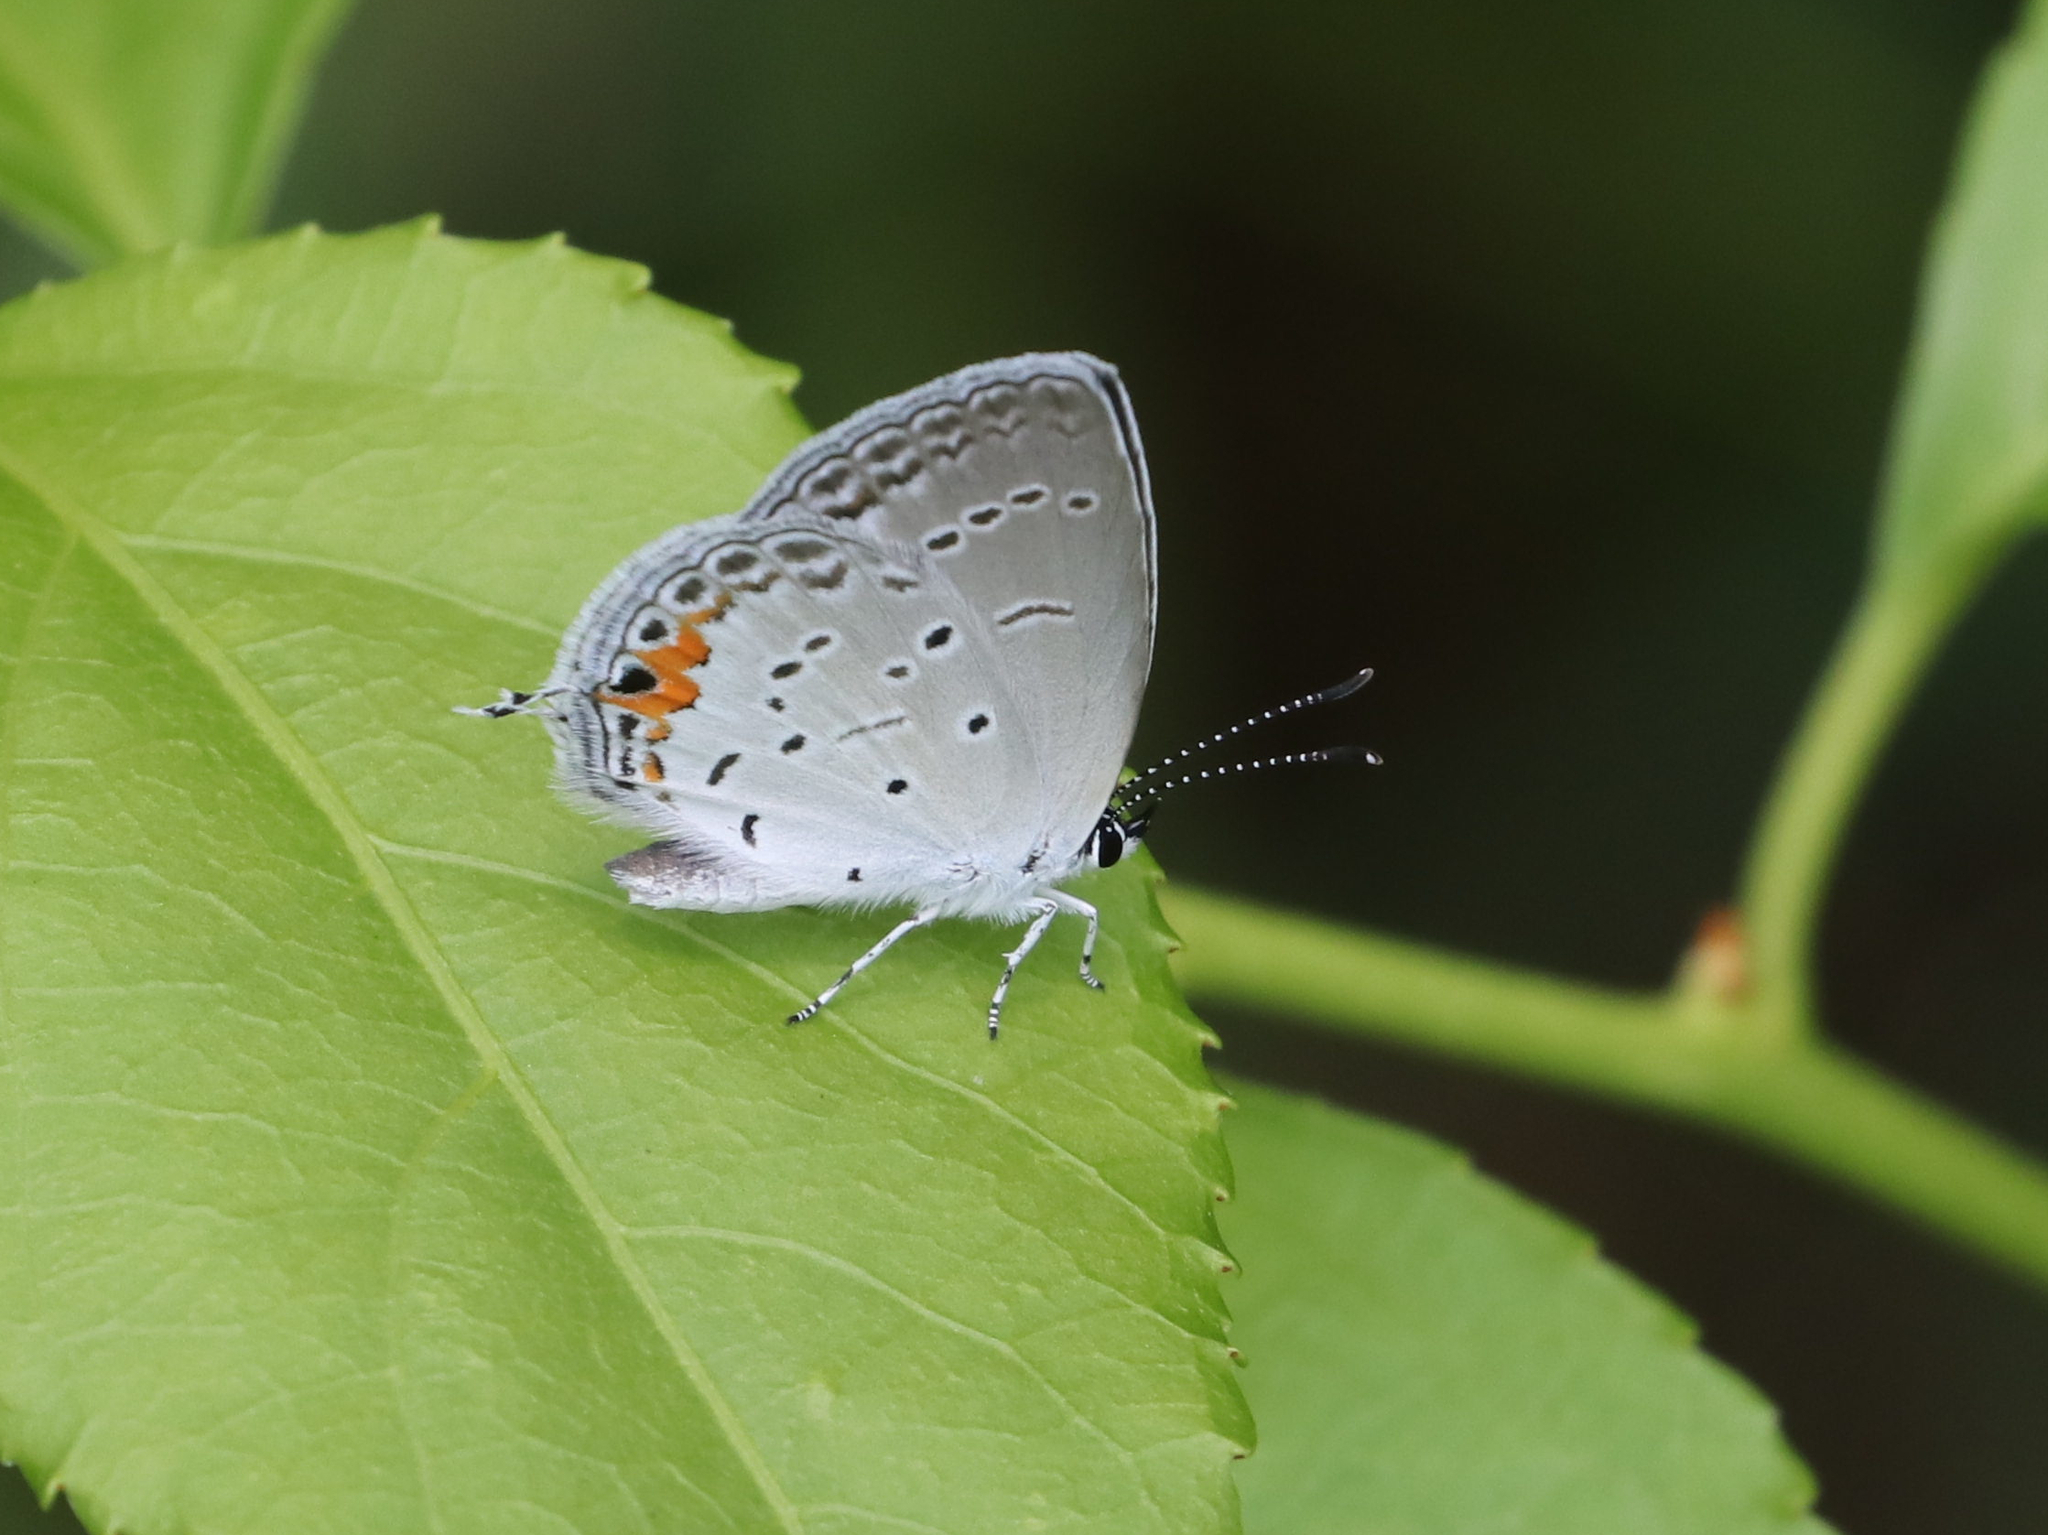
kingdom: Animalia
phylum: Arthropoda
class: Insecta
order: Lepidoptera
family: Lycaenidae
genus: Elkalyce
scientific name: Elkalyce comyntas
